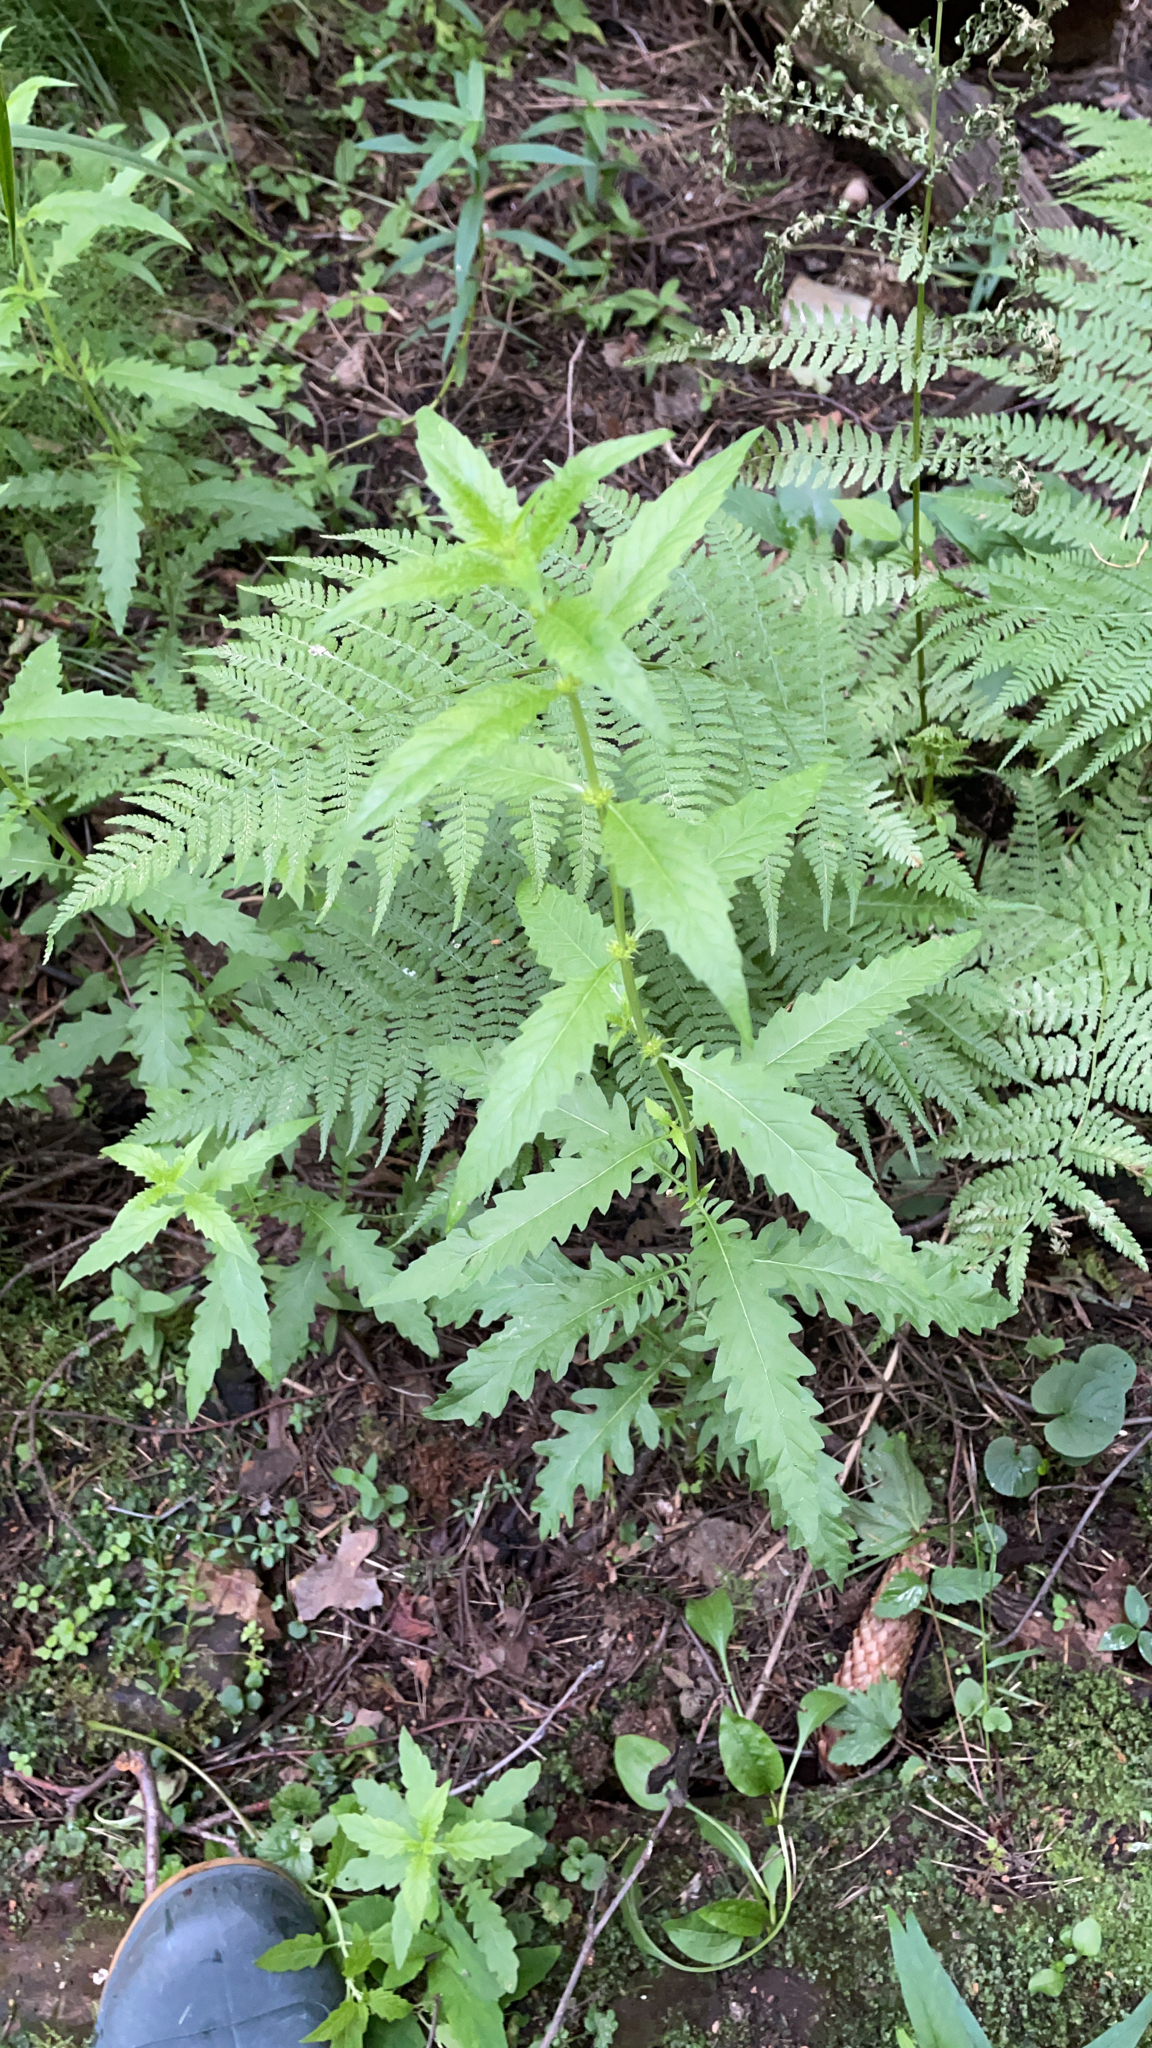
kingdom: Plantae
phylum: Tracheophyta
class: Magnoliopsida
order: Lamiales
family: Lamiaceae
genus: Lycopus
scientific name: Lycopus europaeus
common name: European bugleweed
